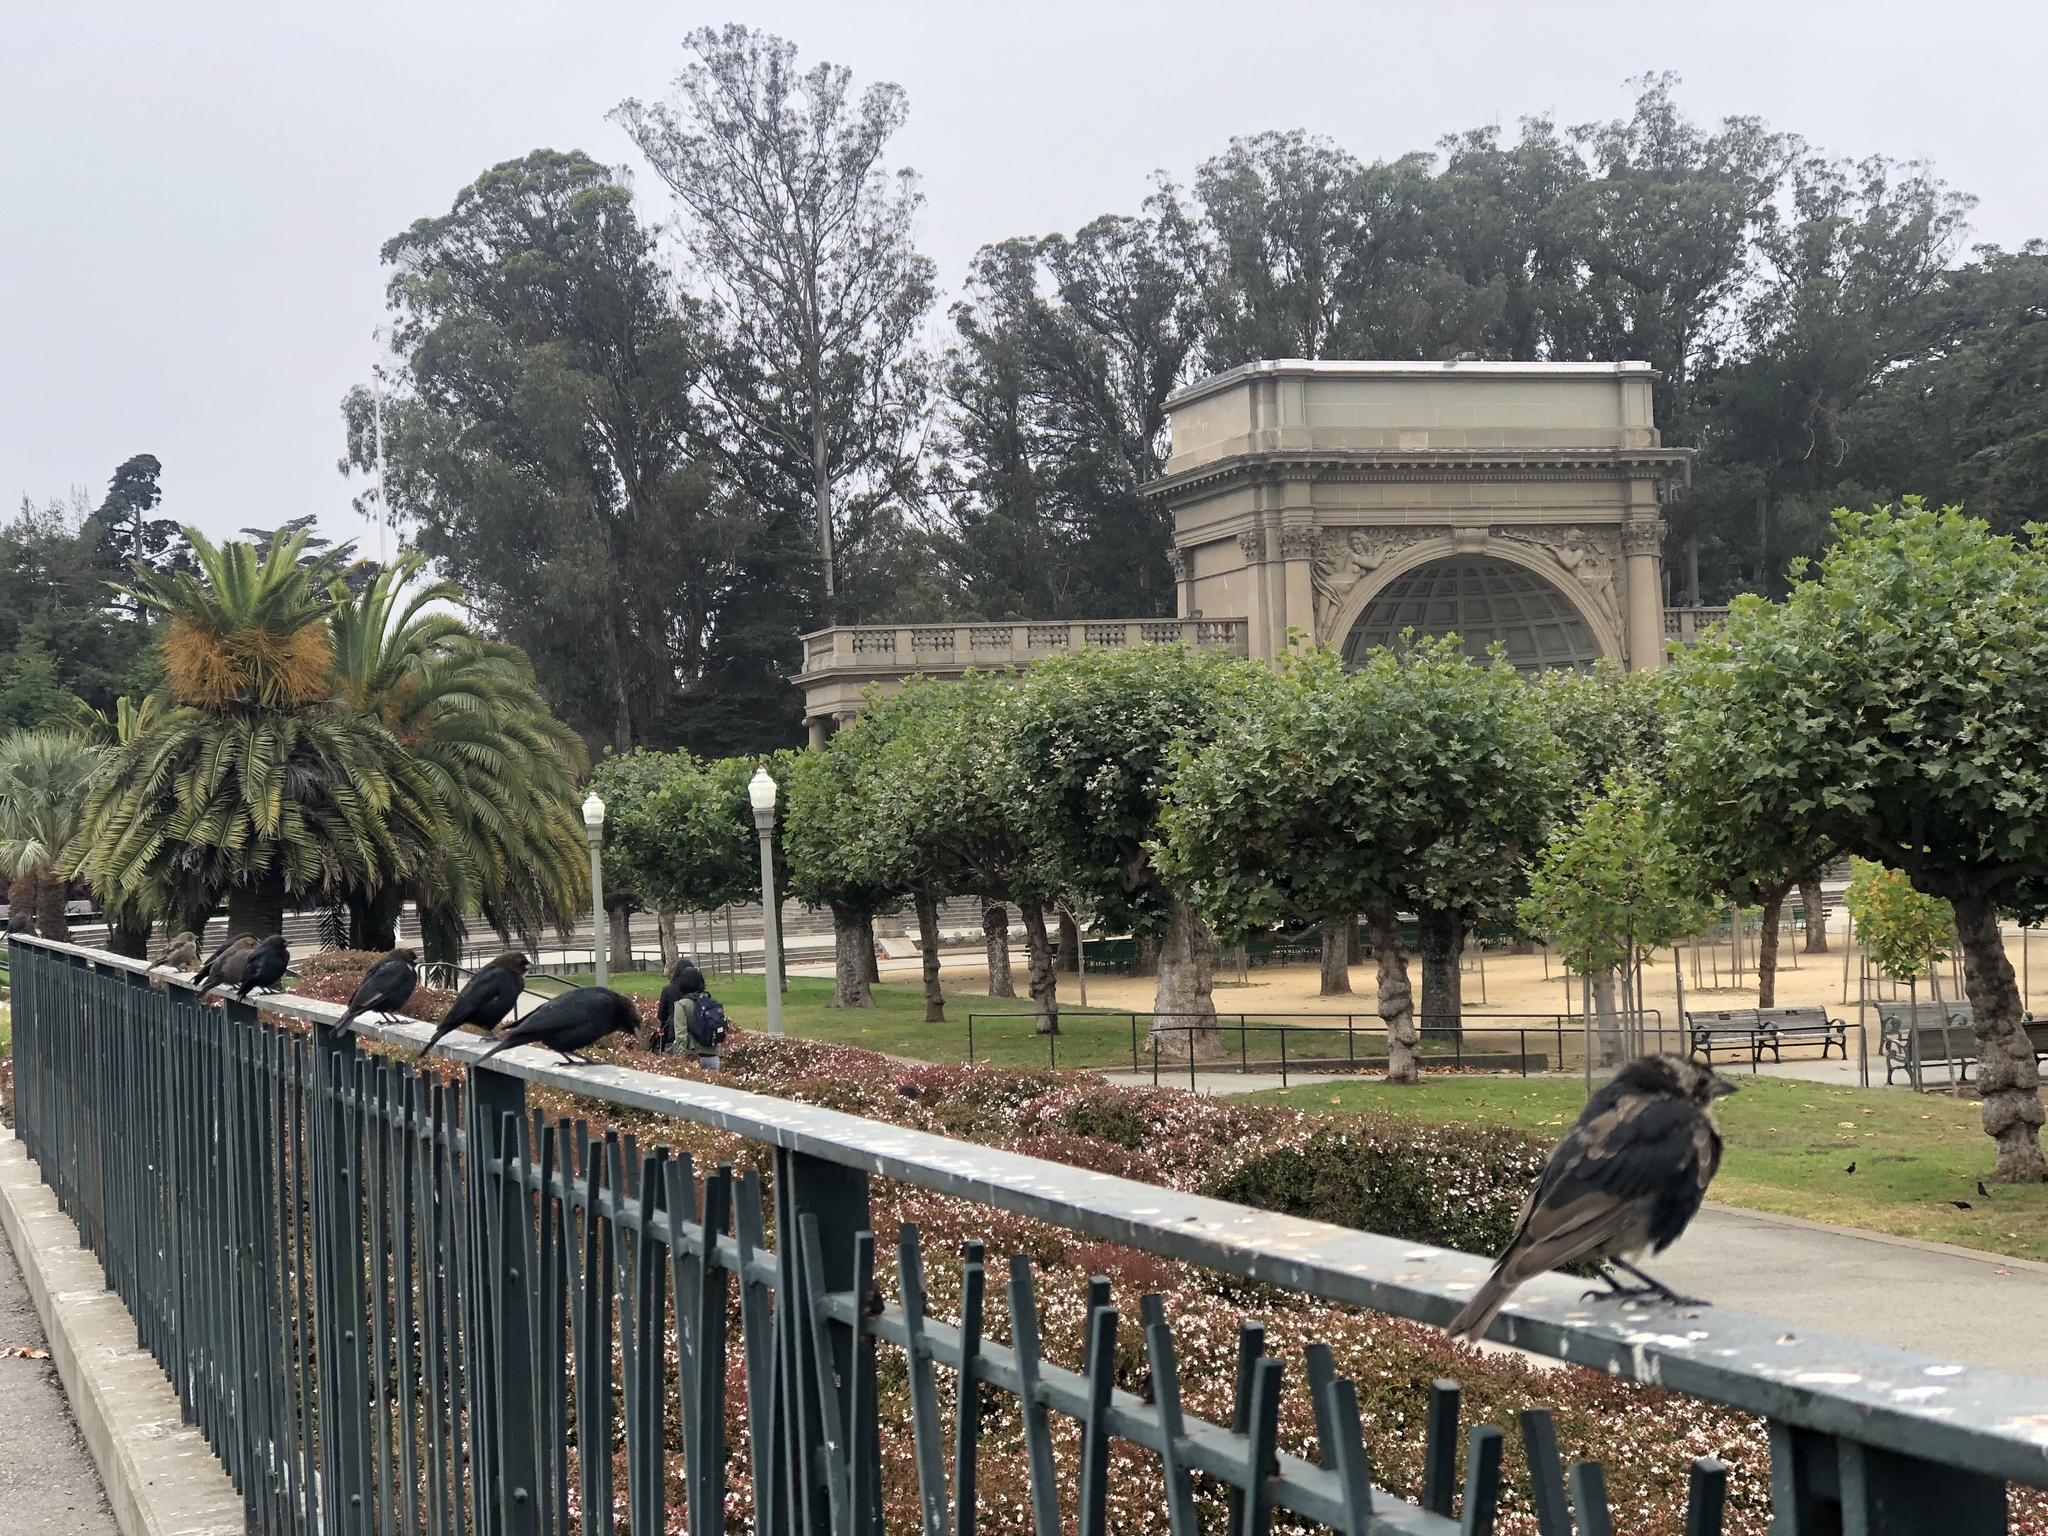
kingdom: Animalia
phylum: Chordata
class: Aves
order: Passeriformes
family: Icteridae
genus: Molothrus
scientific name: Molothrus ater
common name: Brown-headed cowbird
